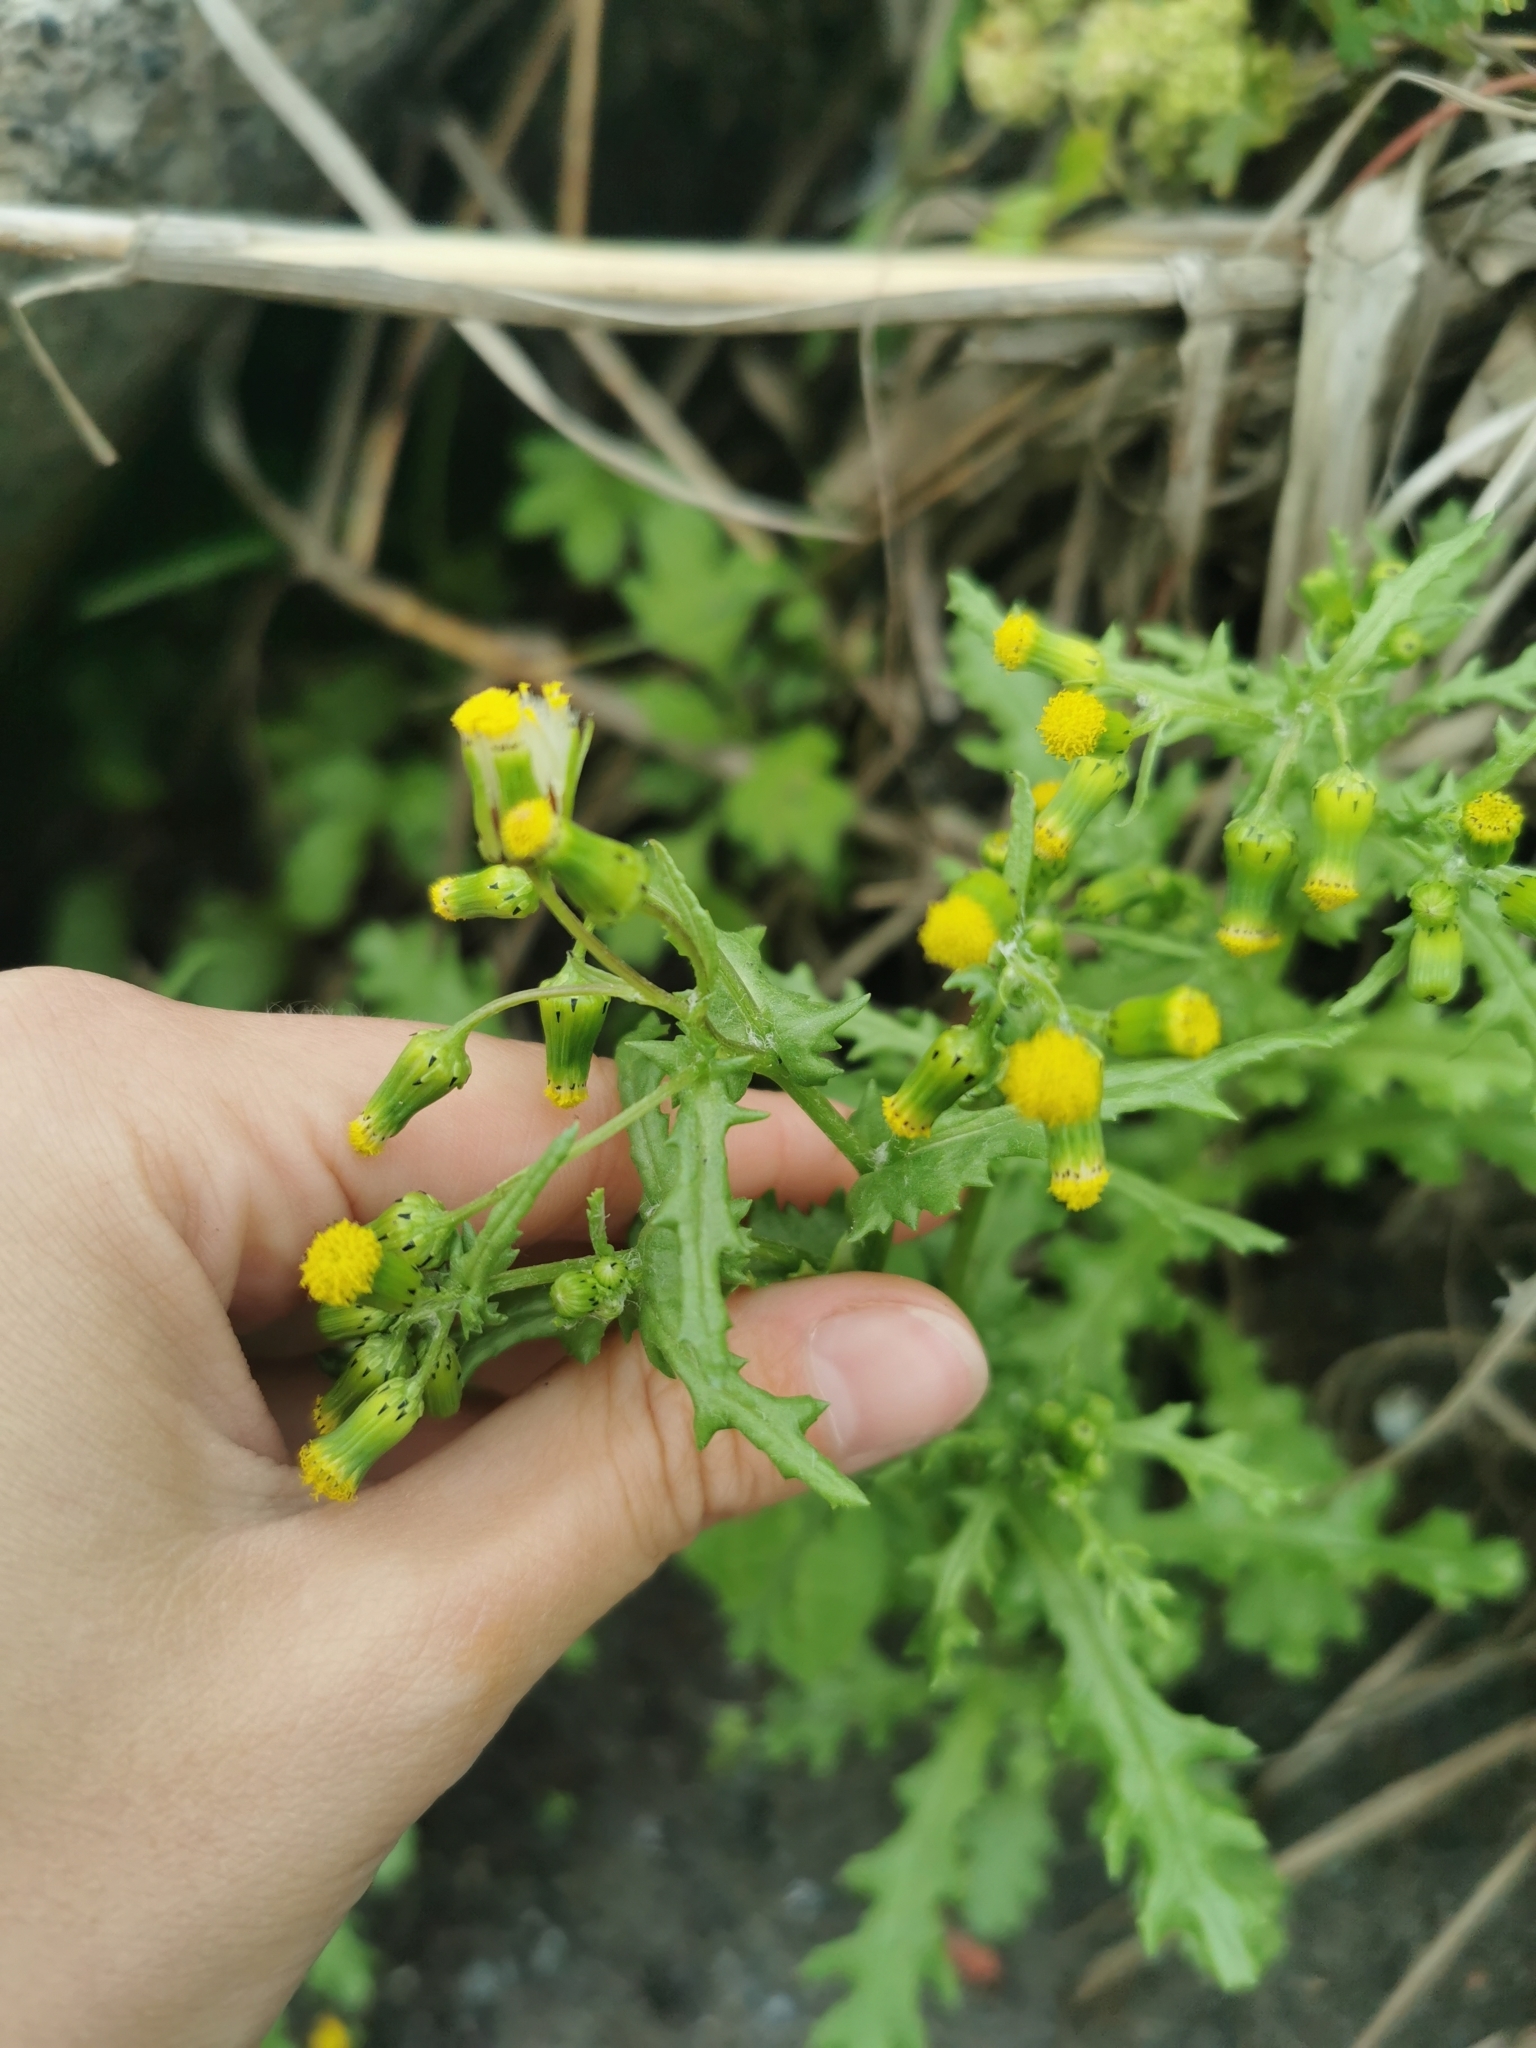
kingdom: Plantae
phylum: Tracheophyta
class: Magnoliopsida
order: Asterales
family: Asteraceae
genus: Senecio
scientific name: Senecio vulgaris
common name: Old-man-in-the-spring
